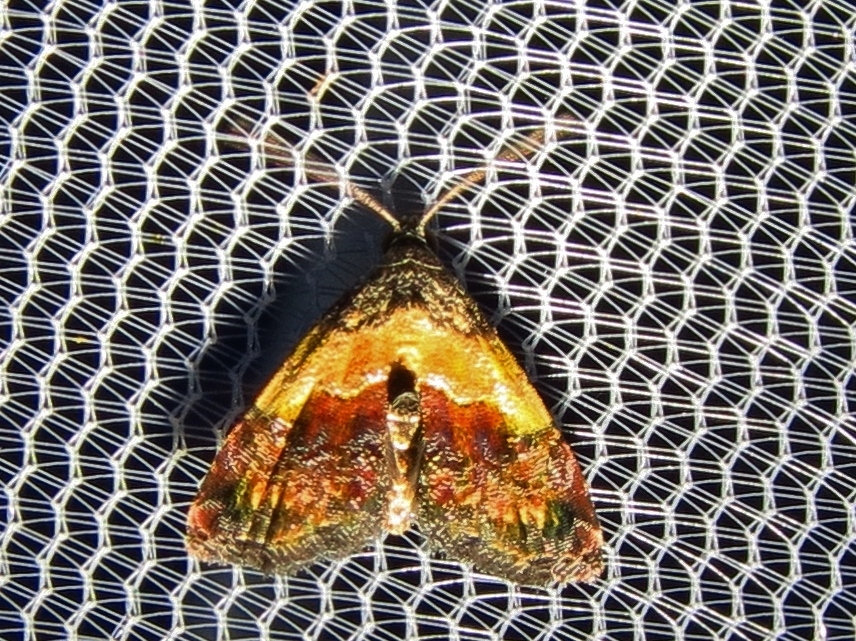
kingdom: Animalia
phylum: Arthropoda
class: Insecta
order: Lepidoptera
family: Noctuidae
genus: Tripudia
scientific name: Tripudia flavofasciata
